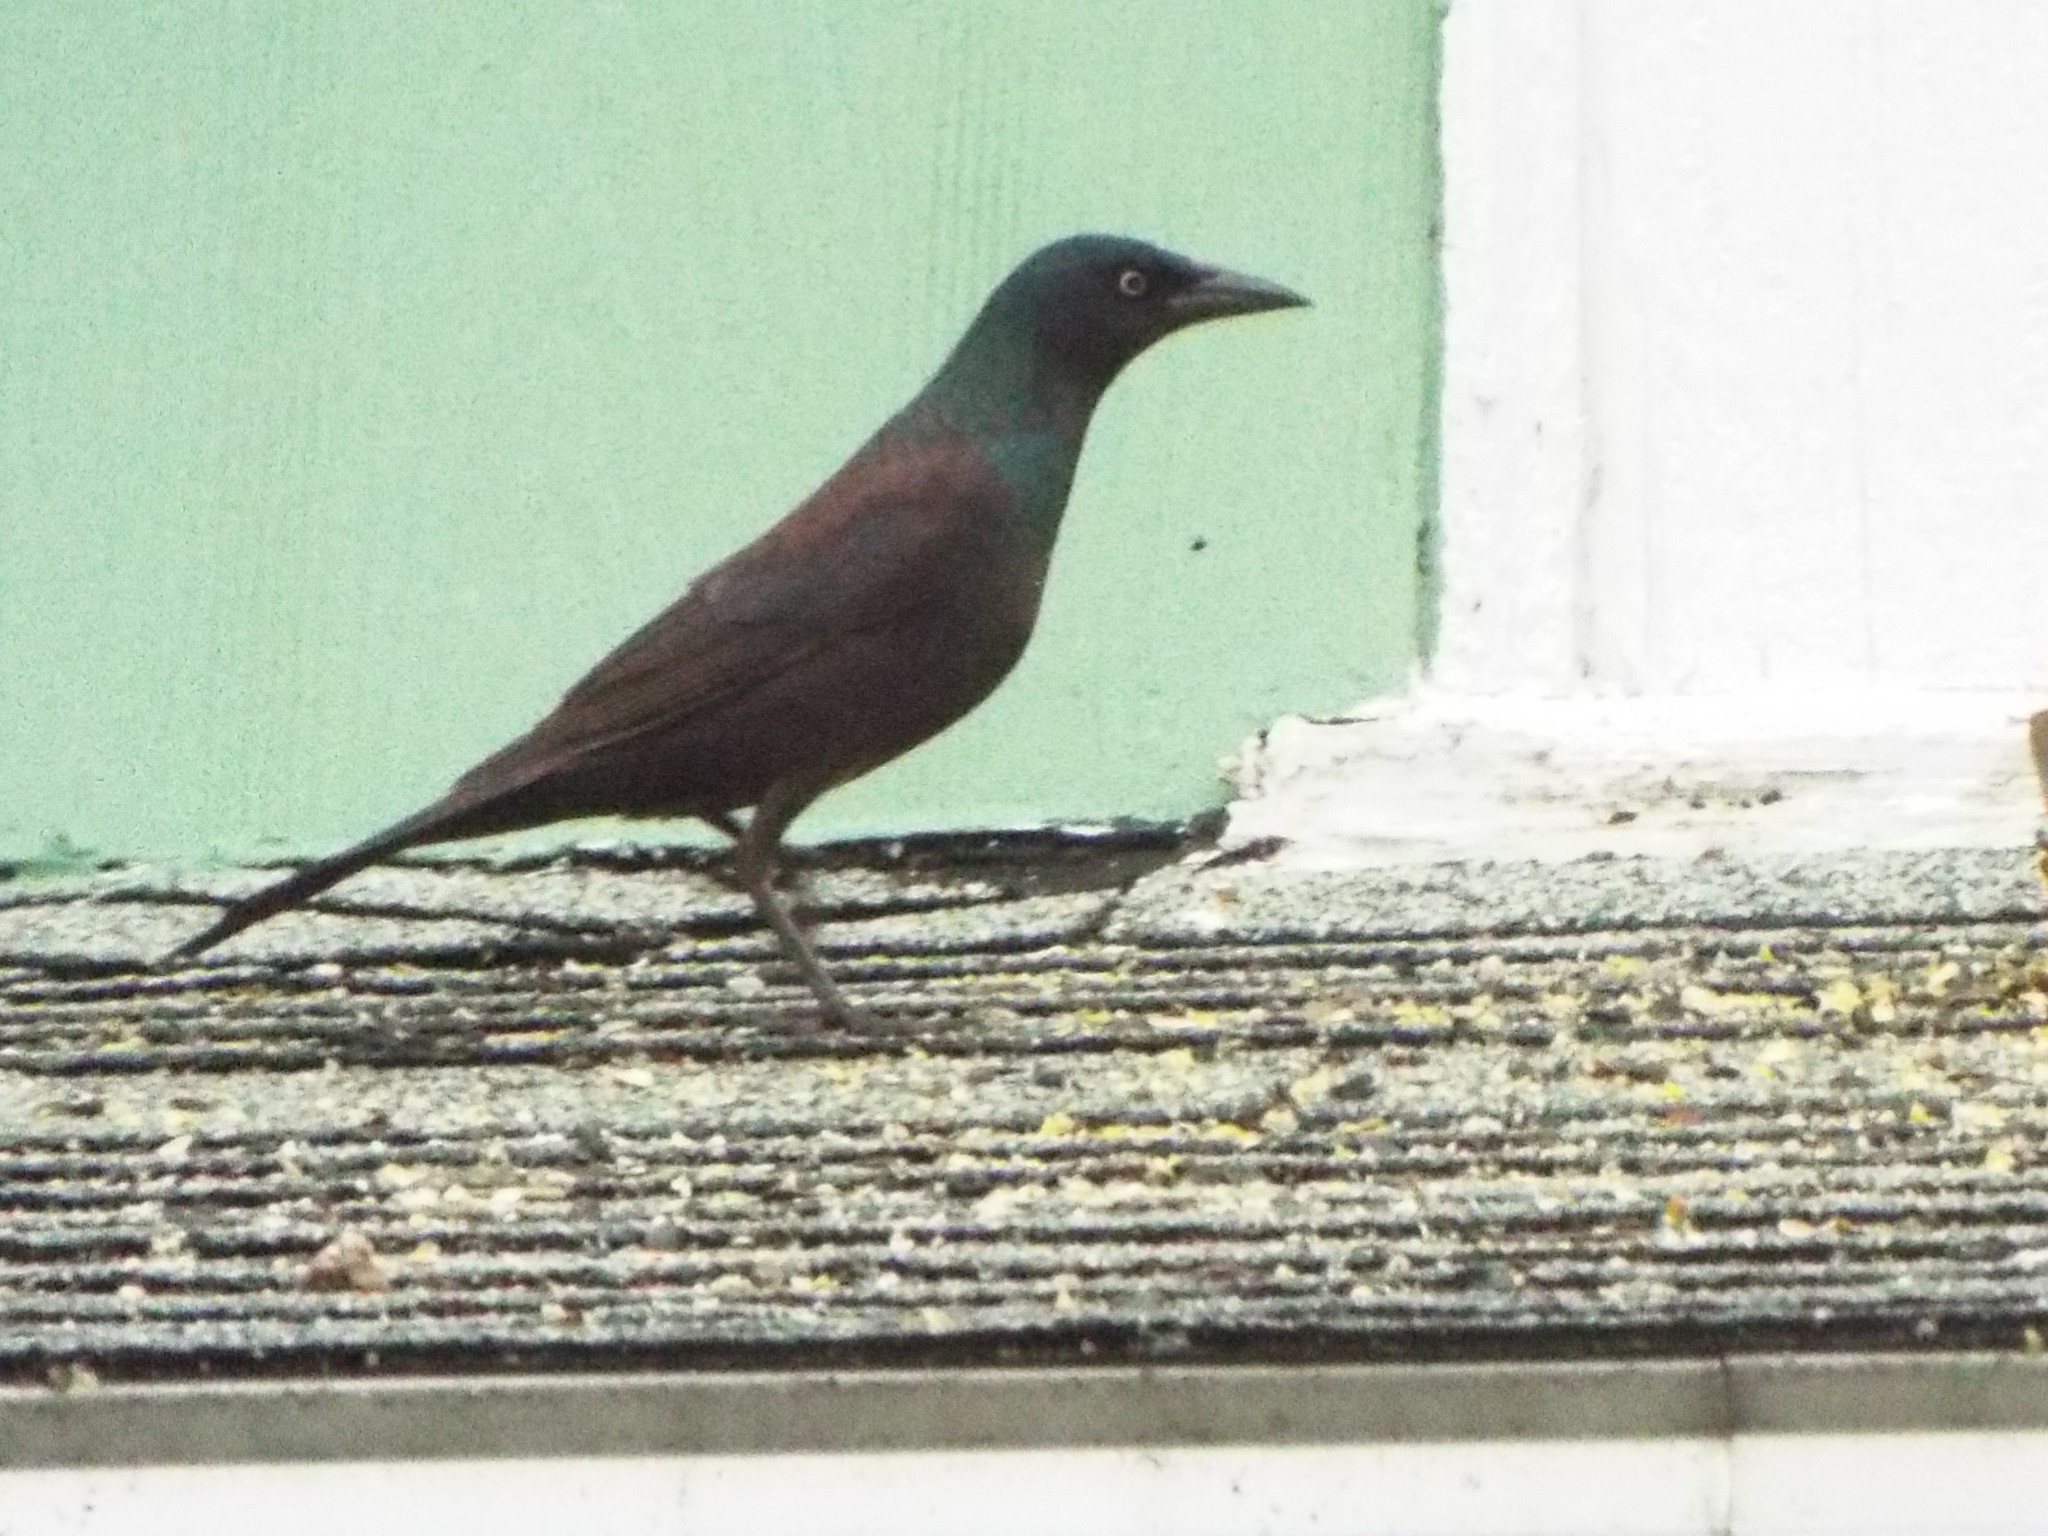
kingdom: Animalia
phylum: Chordata
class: Aves
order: Passeriformes
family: Icteridae
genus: Quiscalus
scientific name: Quiscalus quiscula
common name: Common grackle
